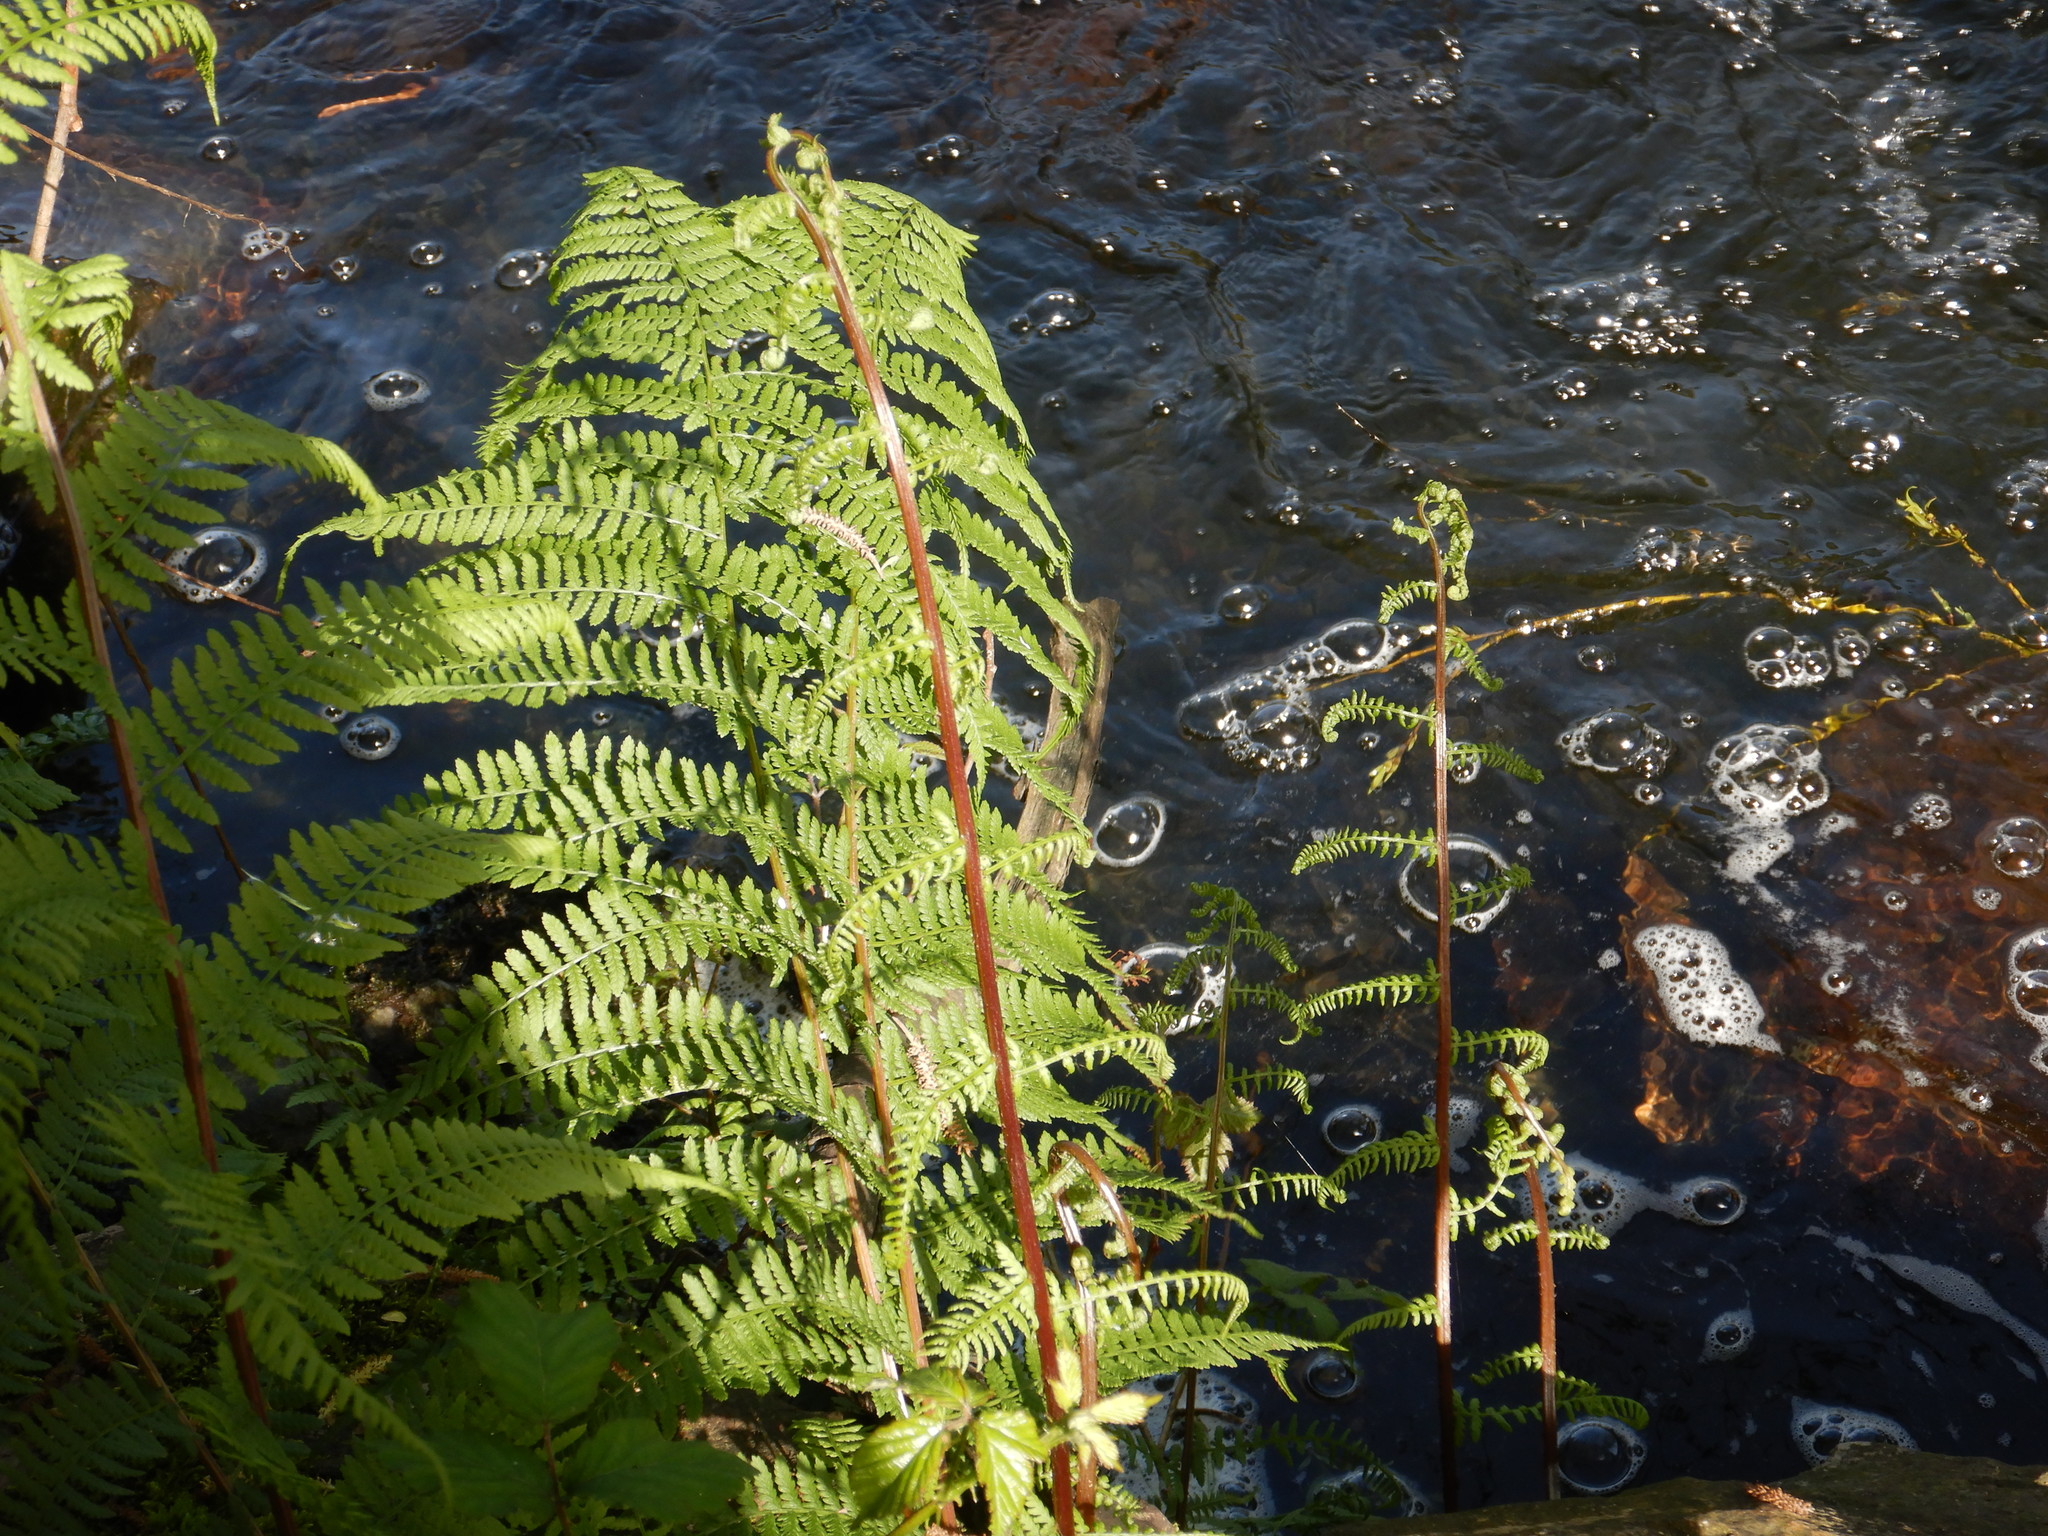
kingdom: Plantae
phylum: Tracheophyta
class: Polypodiopsida
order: Polypodiales
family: Athyriaceae
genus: Athyrium
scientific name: Athyrium filix-femina
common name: Lady fern
